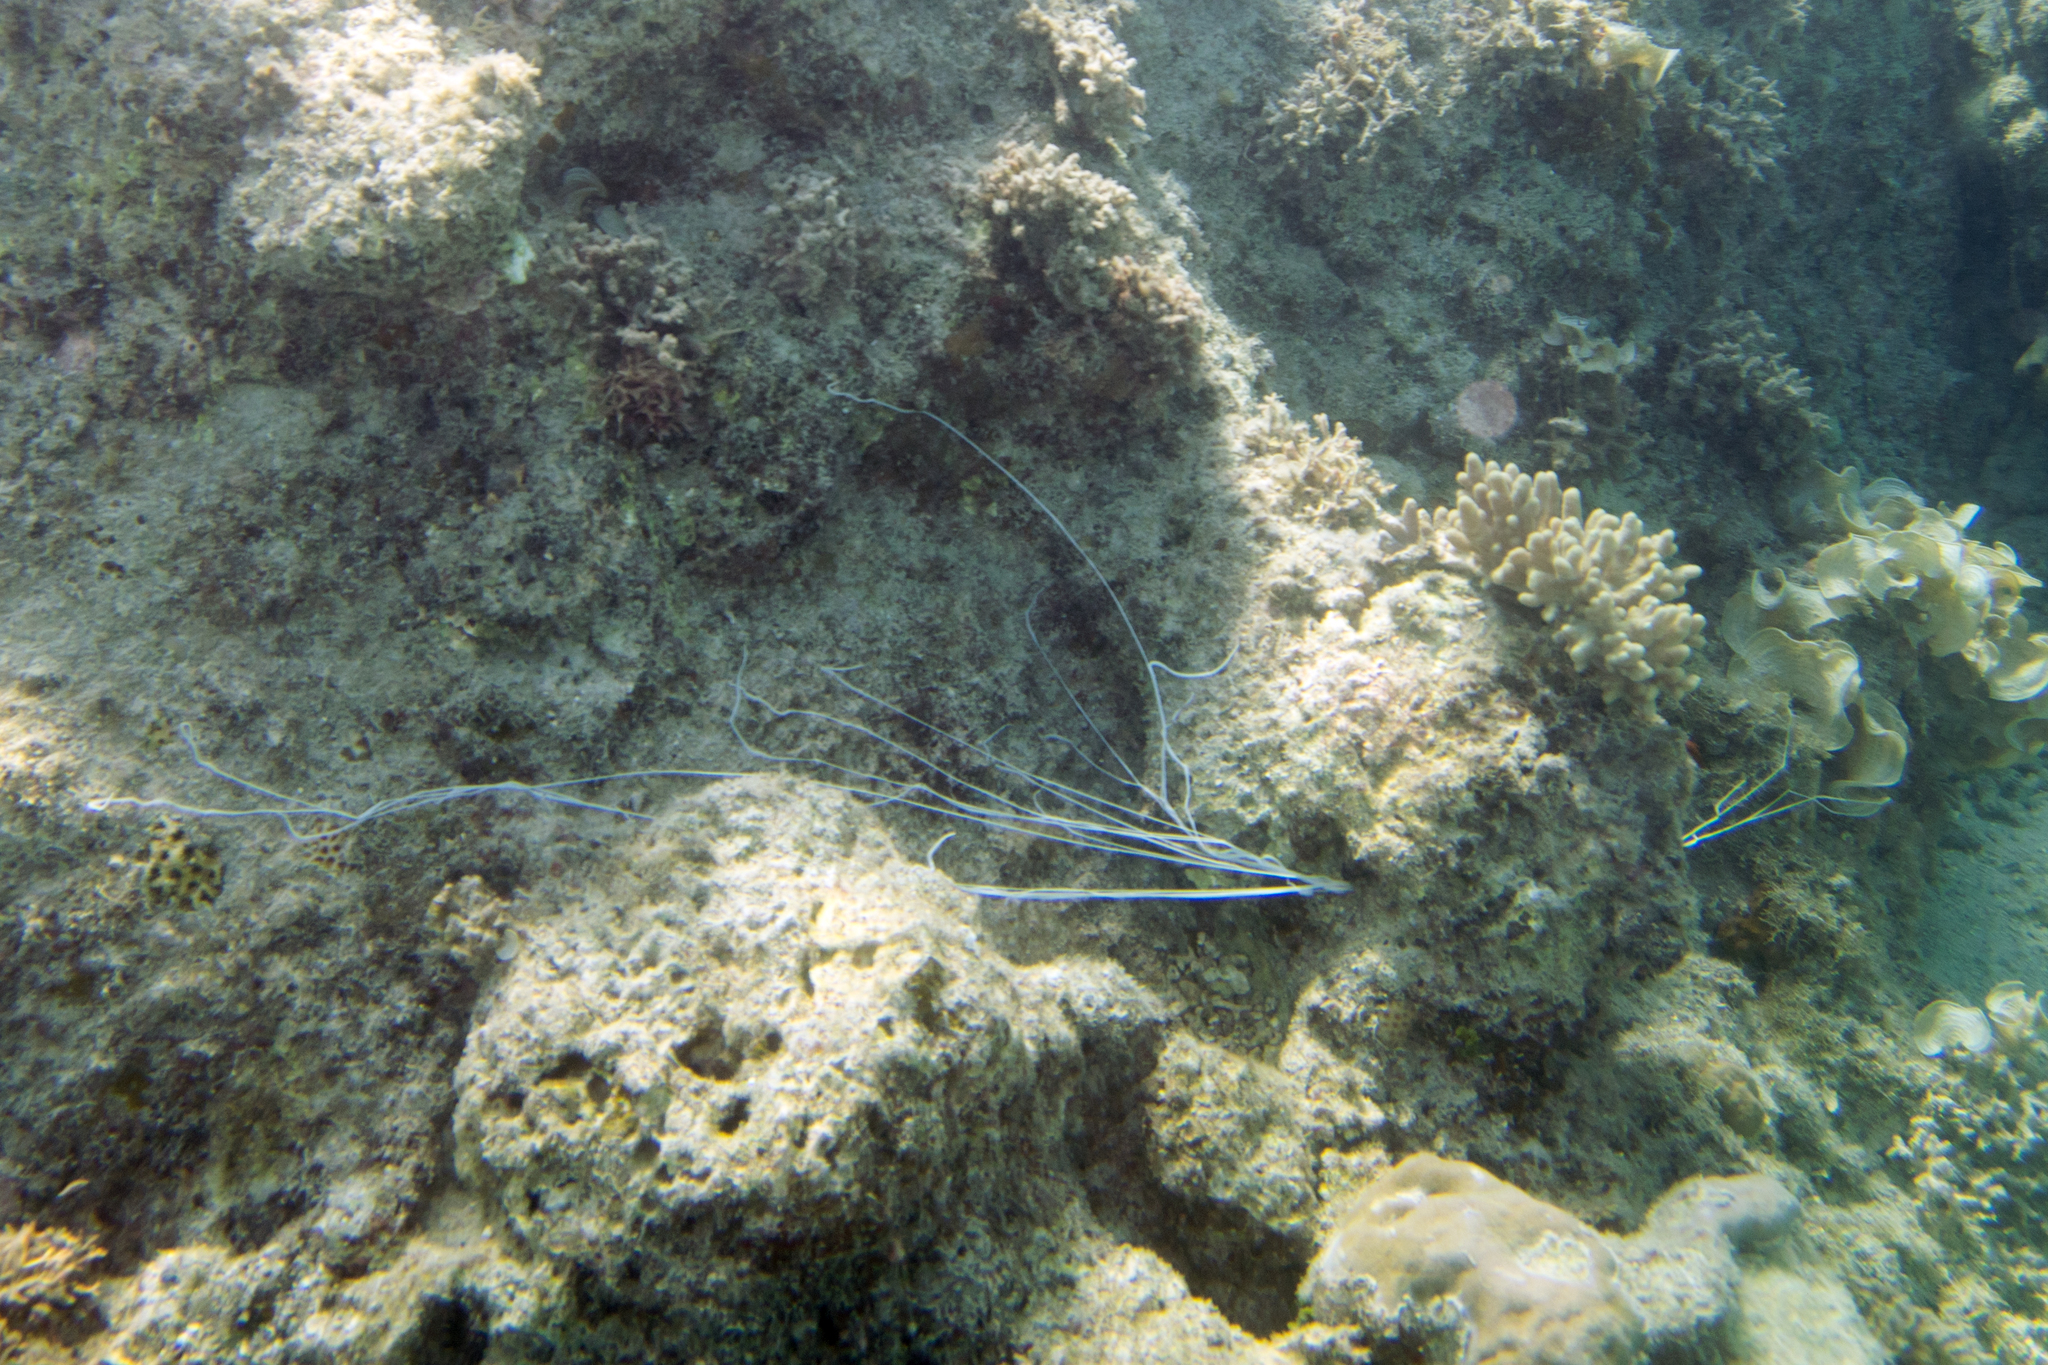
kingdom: Animalia
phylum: Annelida
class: Polychaeta
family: Terebellidae
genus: Reteterebella
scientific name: Reteterebella lirrf
